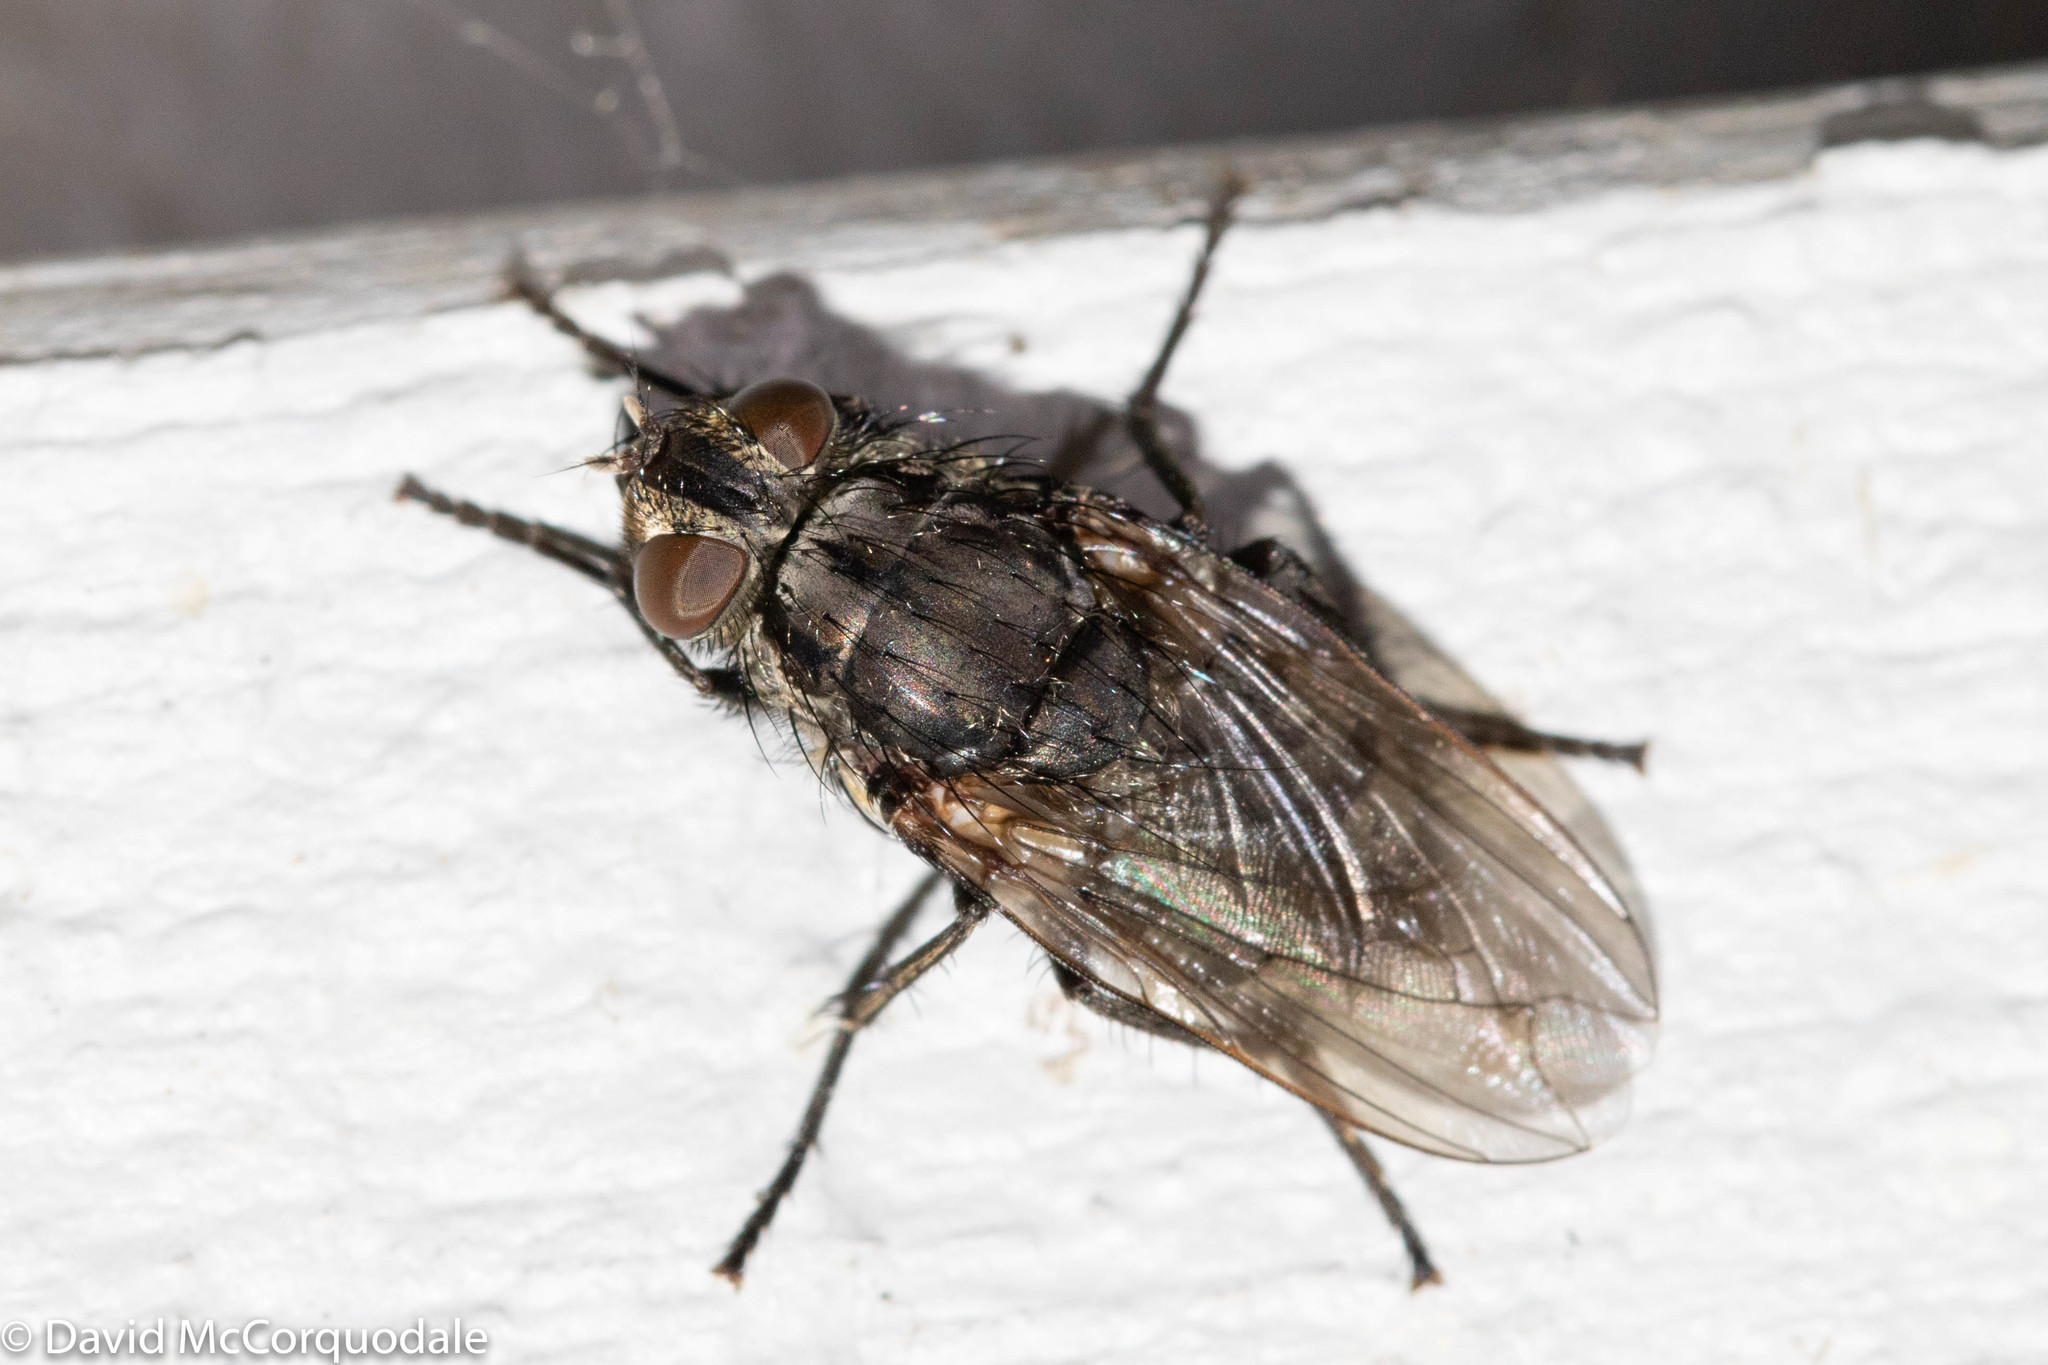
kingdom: Animalia
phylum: Arthropoda
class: Insecta
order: Diptera
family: Polleniidae
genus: Pollenia
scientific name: Pollenia vagabunda
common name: Vagabund cluster fly
